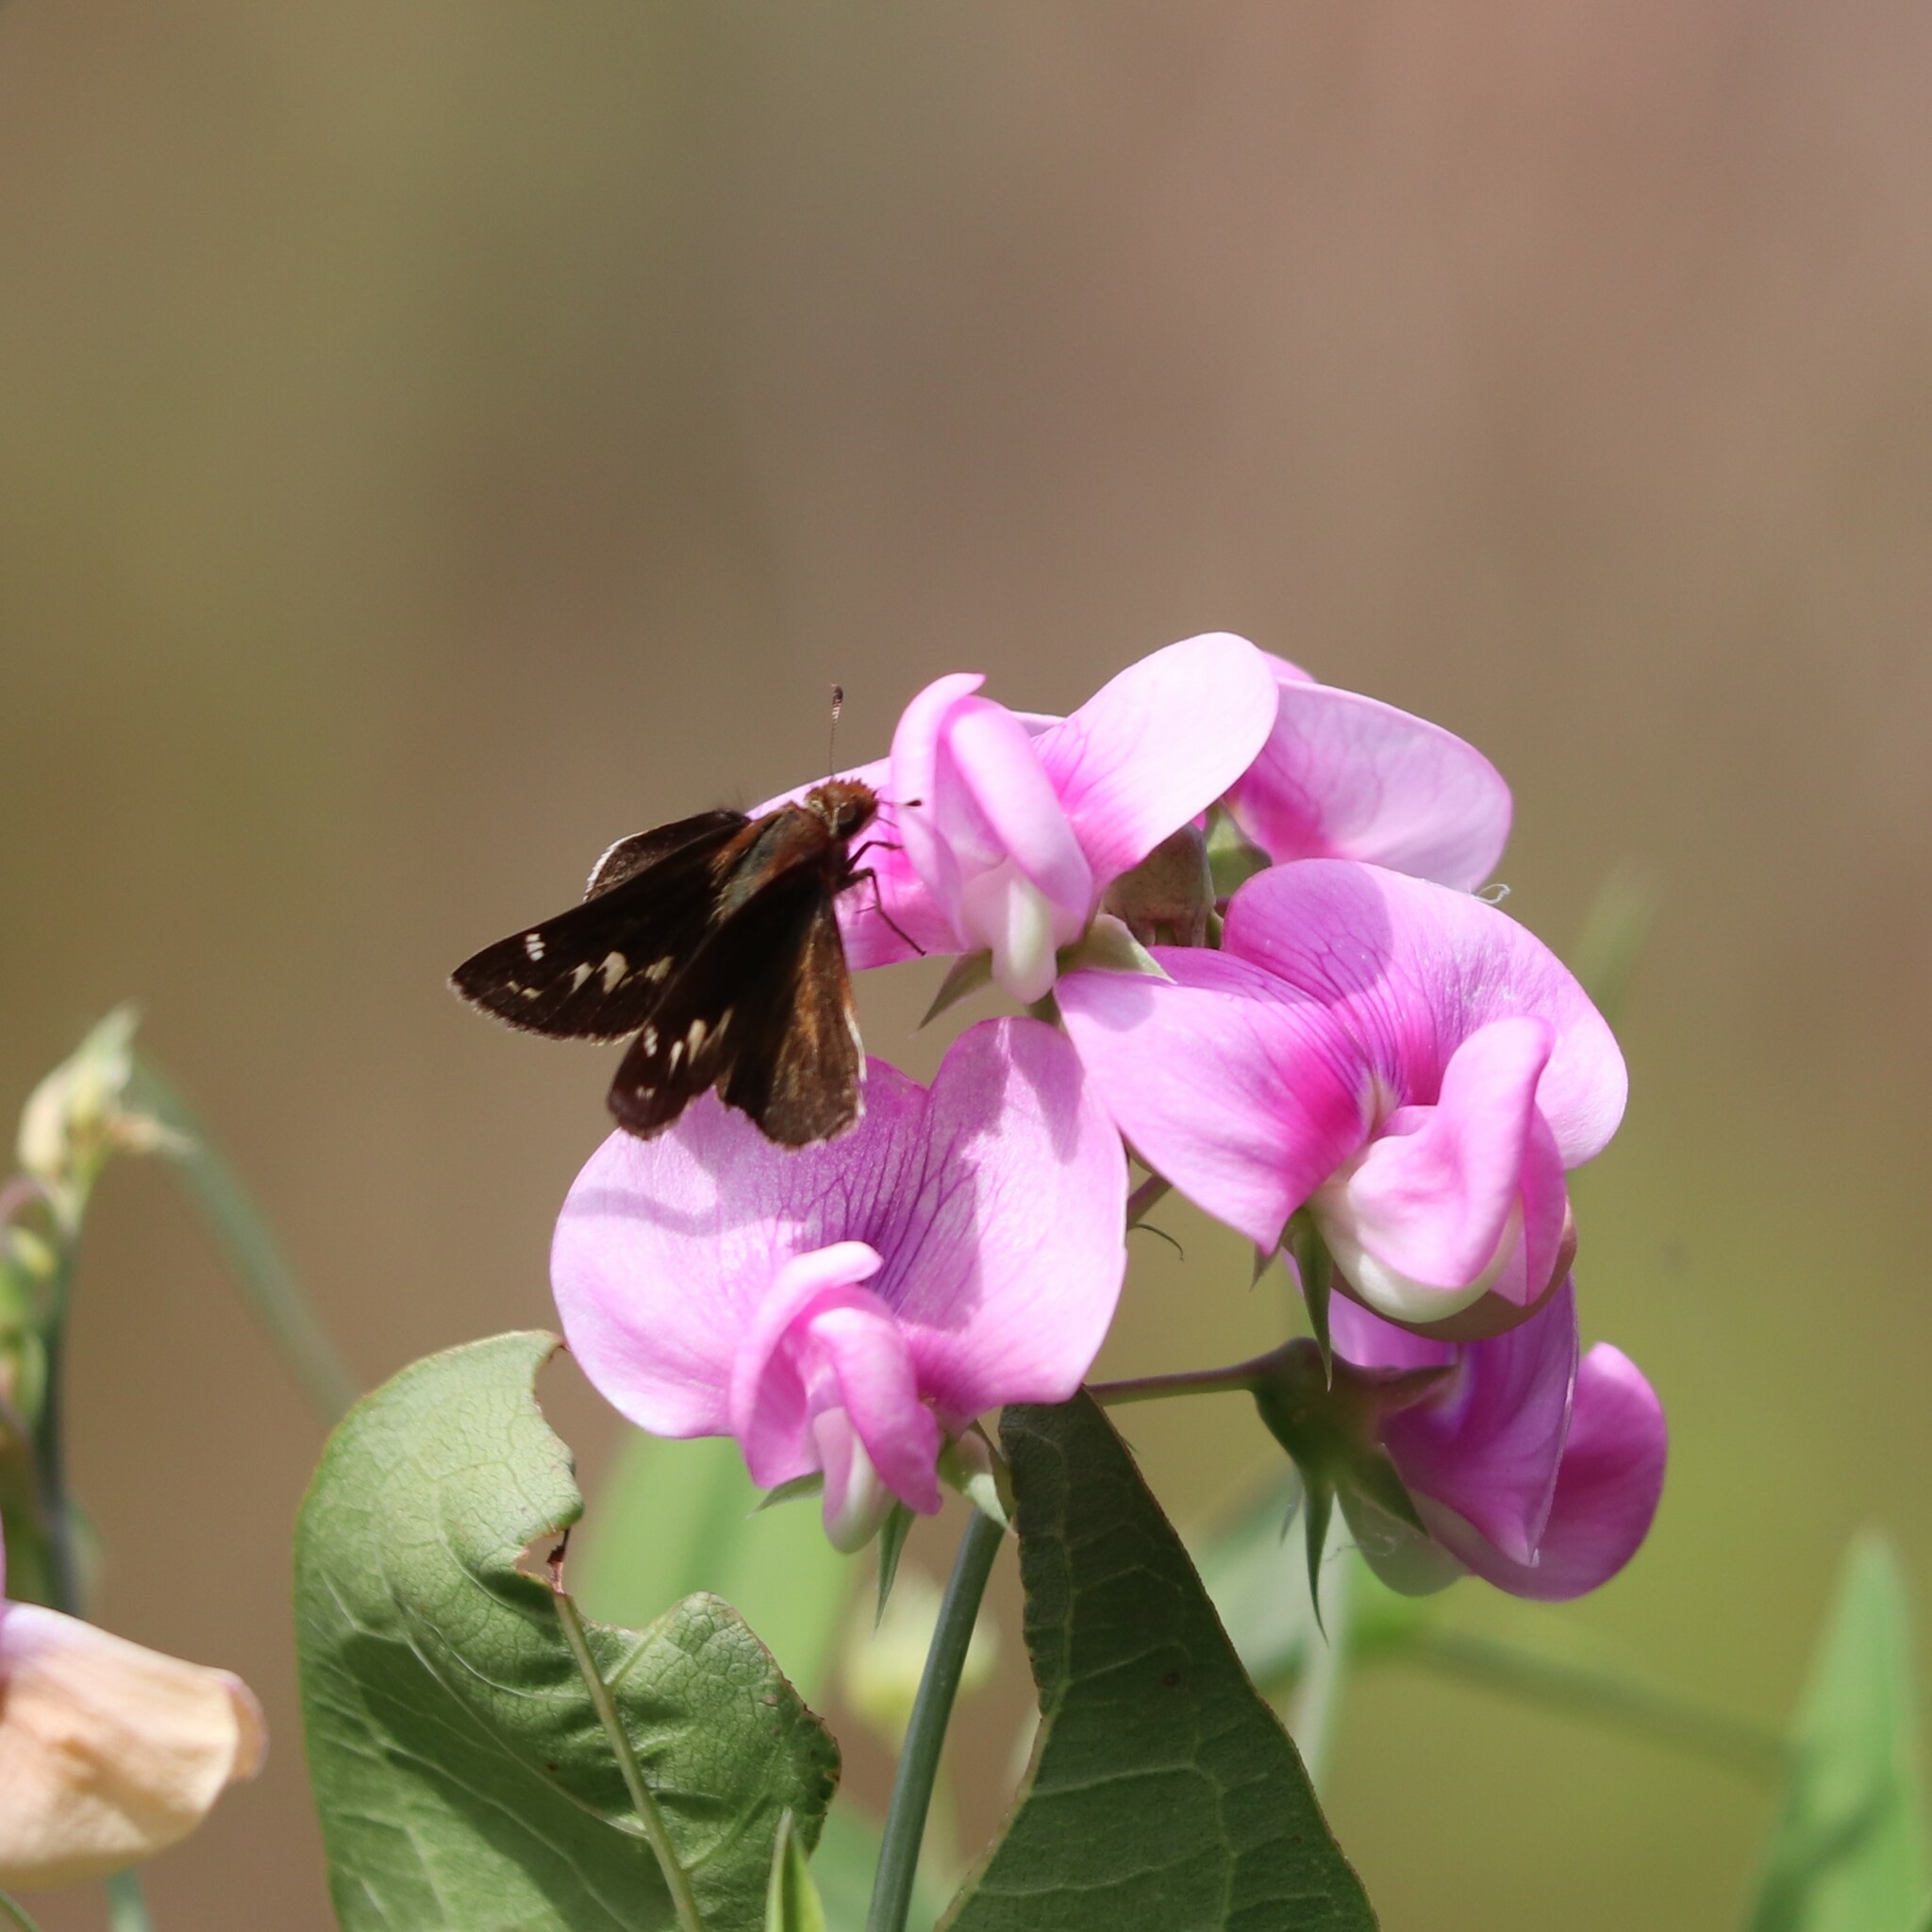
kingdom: Animalia
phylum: Arthropoda
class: Insecta
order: Lepidoptera
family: Hesperiidae
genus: Lon
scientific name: Lon zabulon
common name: Zabulon skipper
